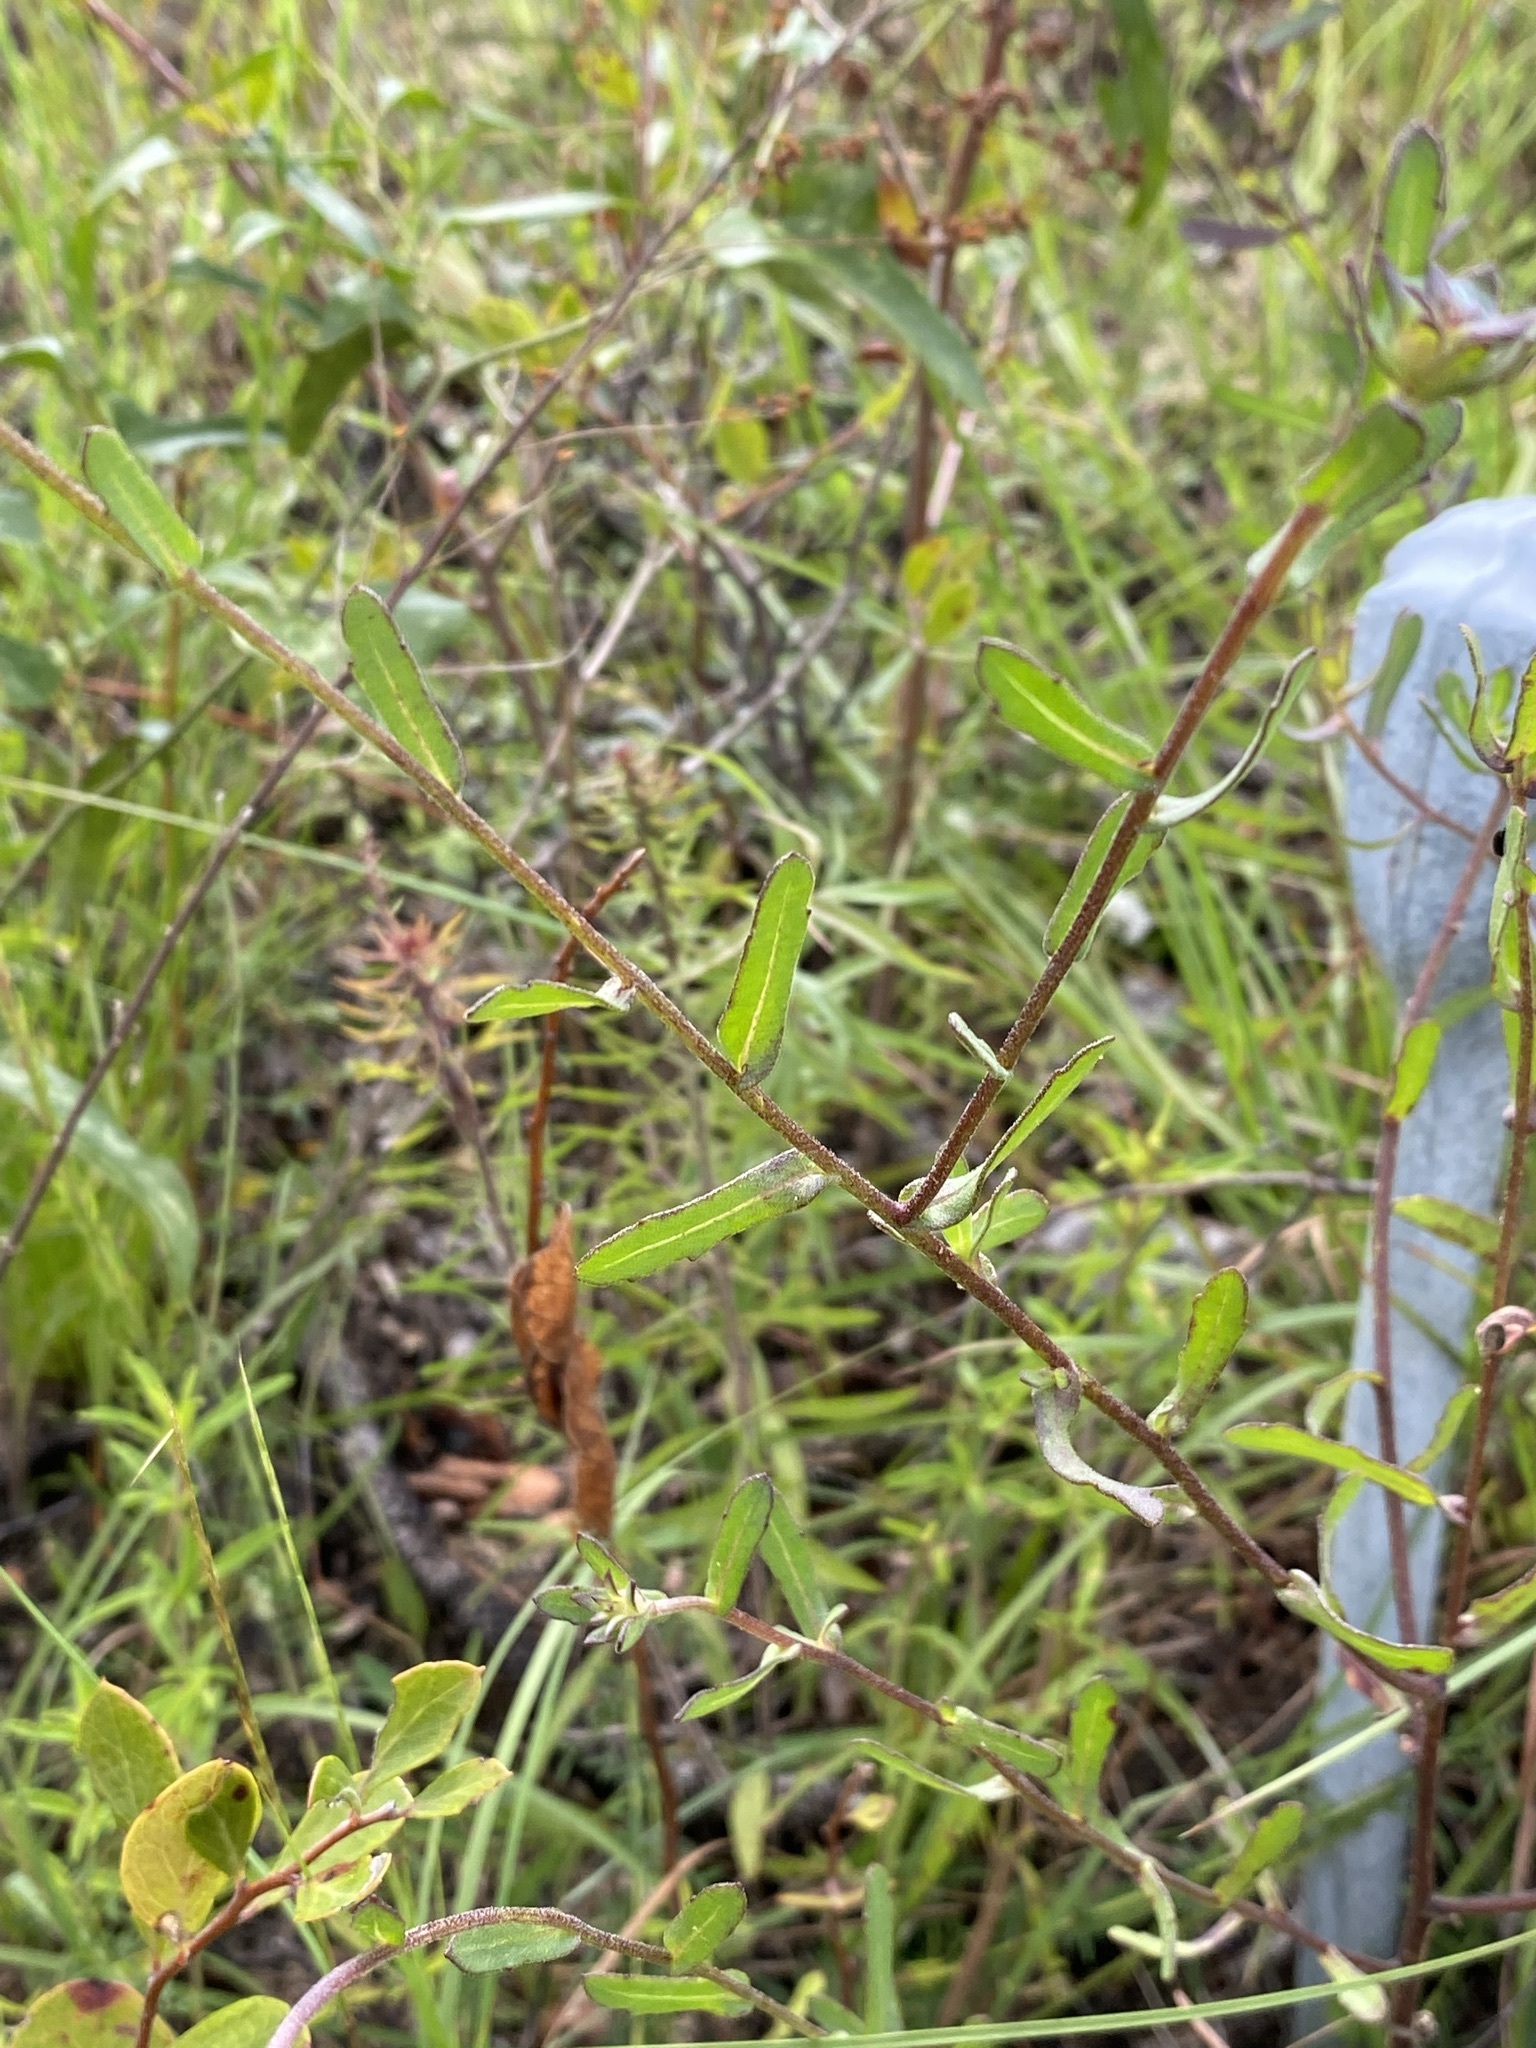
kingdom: Plantae
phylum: Tracheophyta
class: Magnoliopsida
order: Asterales
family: Asteraceae
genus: Gaillardia
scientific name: Gaillardia aestivalis
